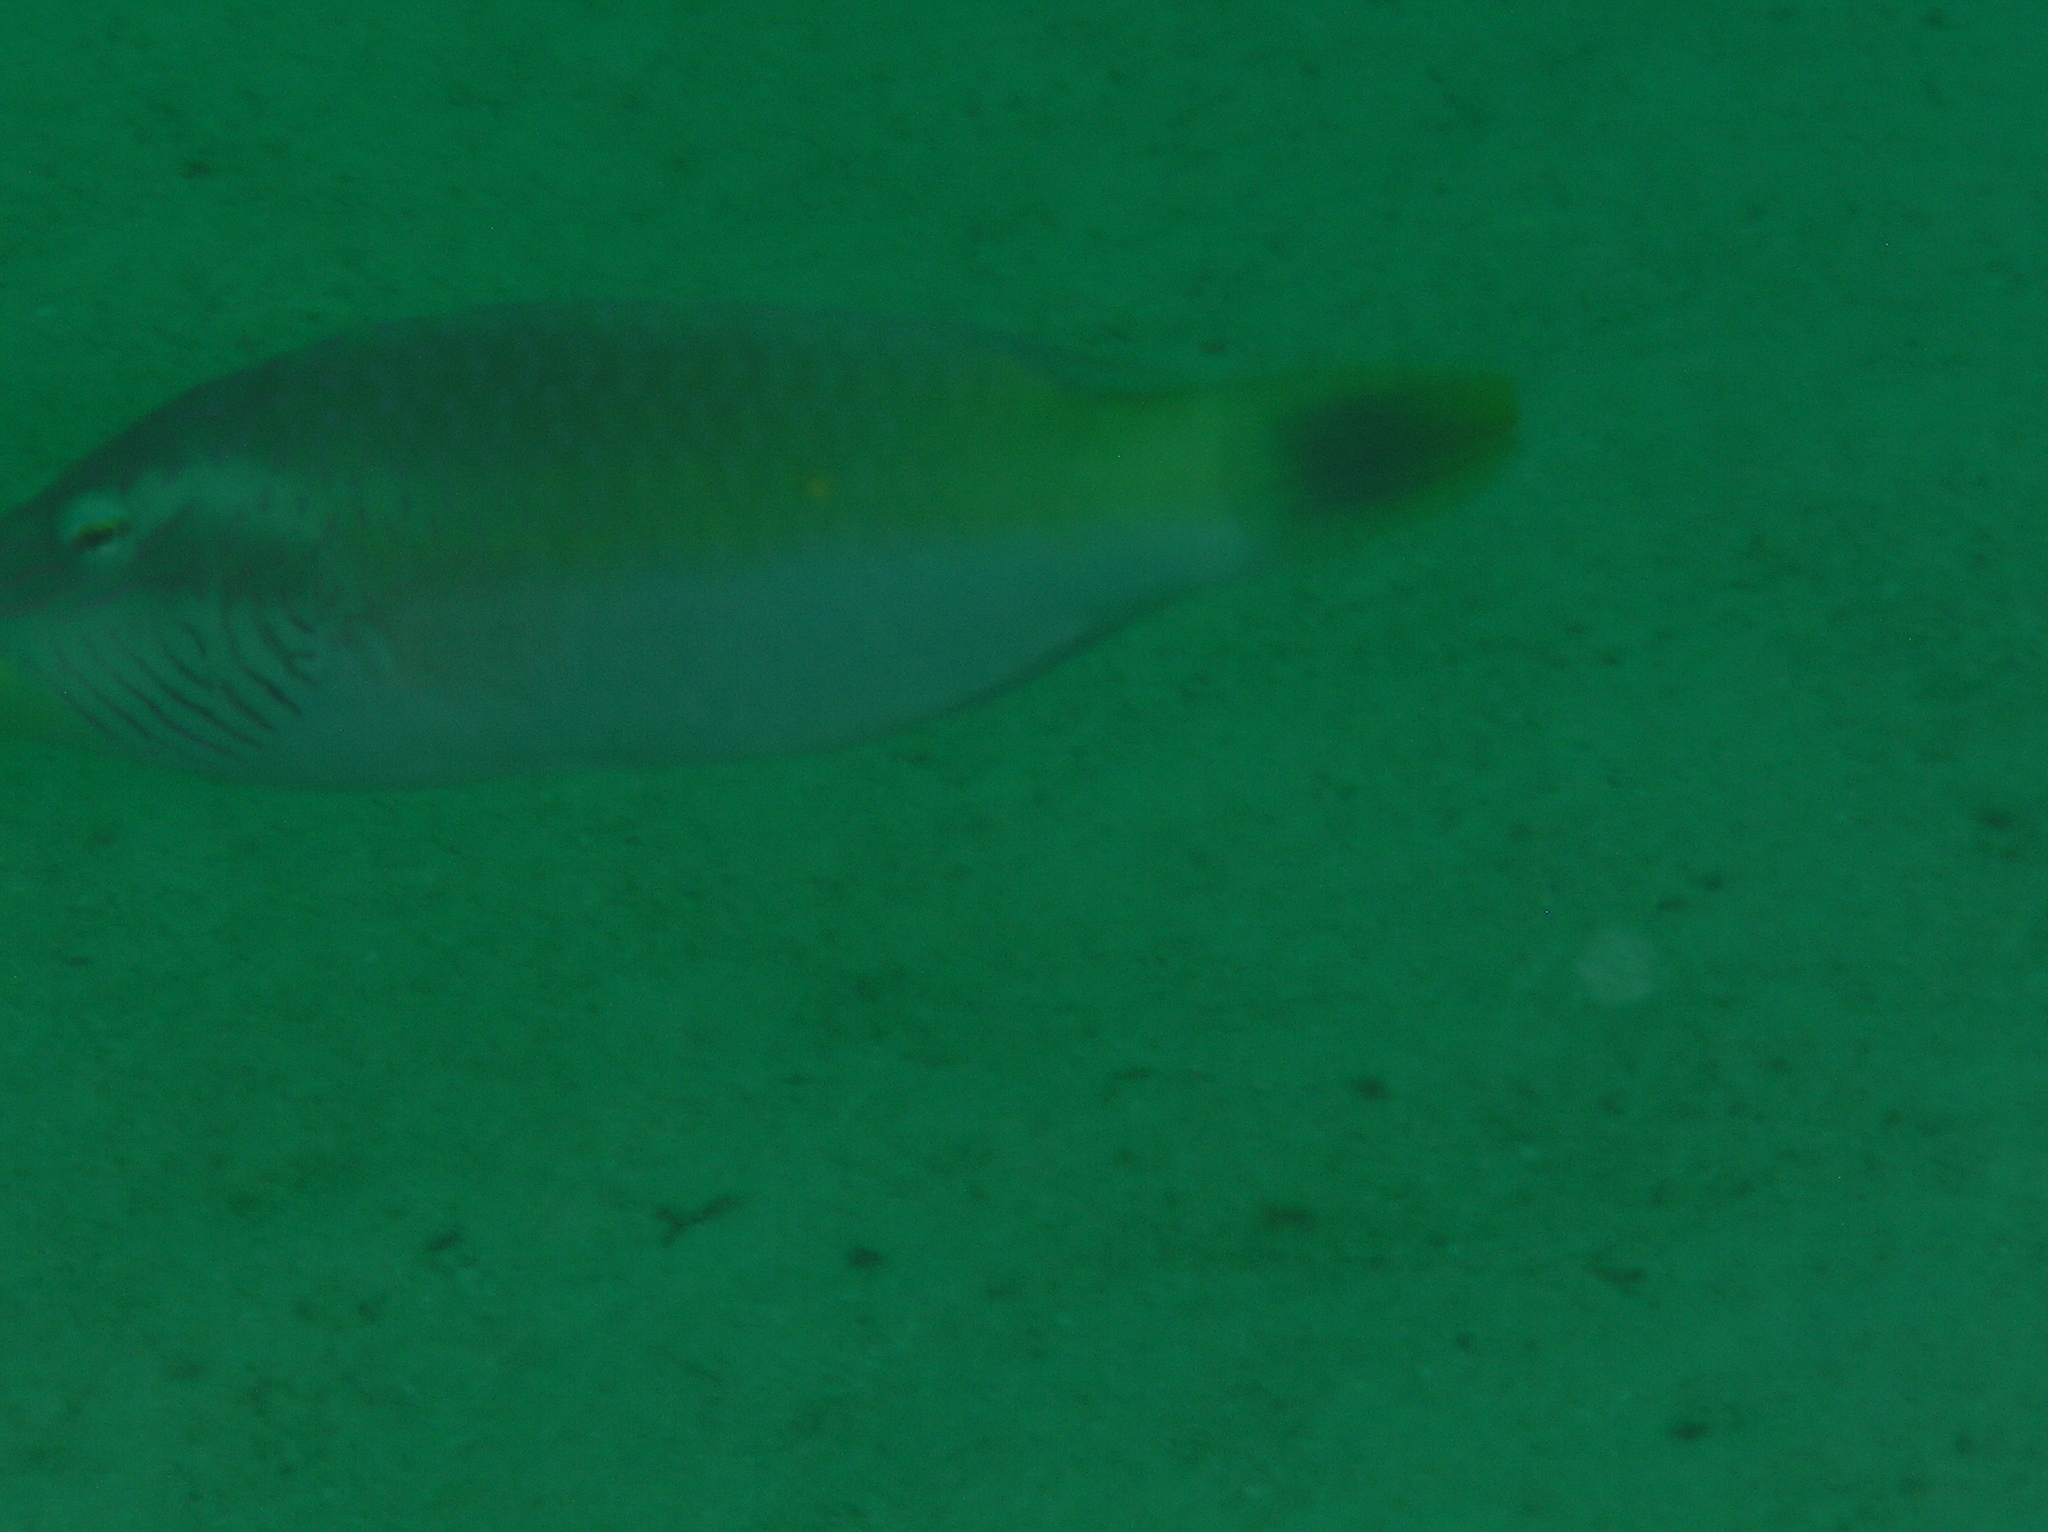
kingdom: Animalia
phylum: Chordata
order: Perciformes
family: Labridae
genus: Oxycheilinus
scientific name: Oxycheilinus digramma
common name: Bandcheek wrasse
